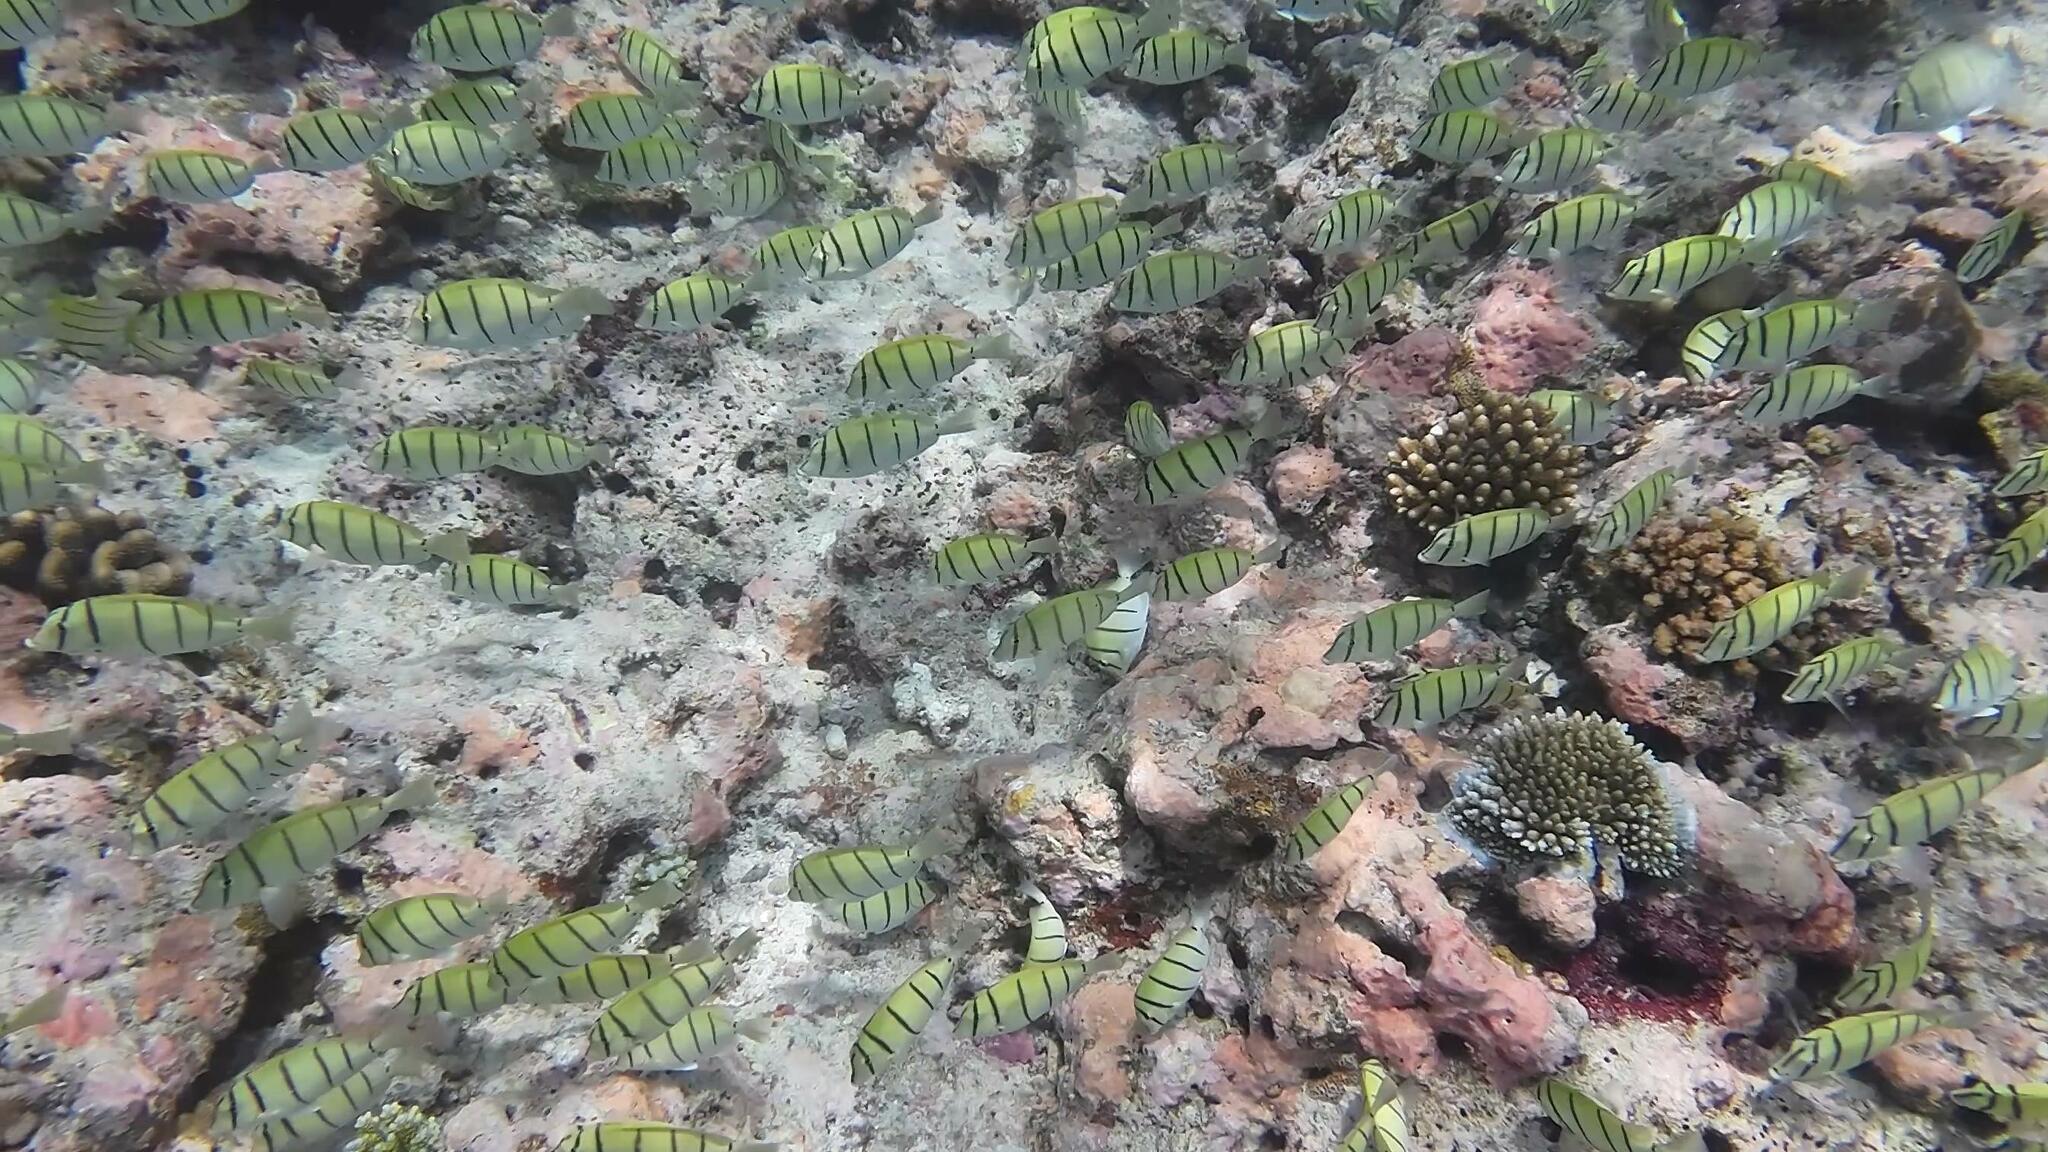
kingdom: Animalia
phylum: Chordata
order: Perciformes
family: Acanthuridae
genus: Acanthurus
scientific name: Acanthurus triostegus
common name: Convict surgeonfish
